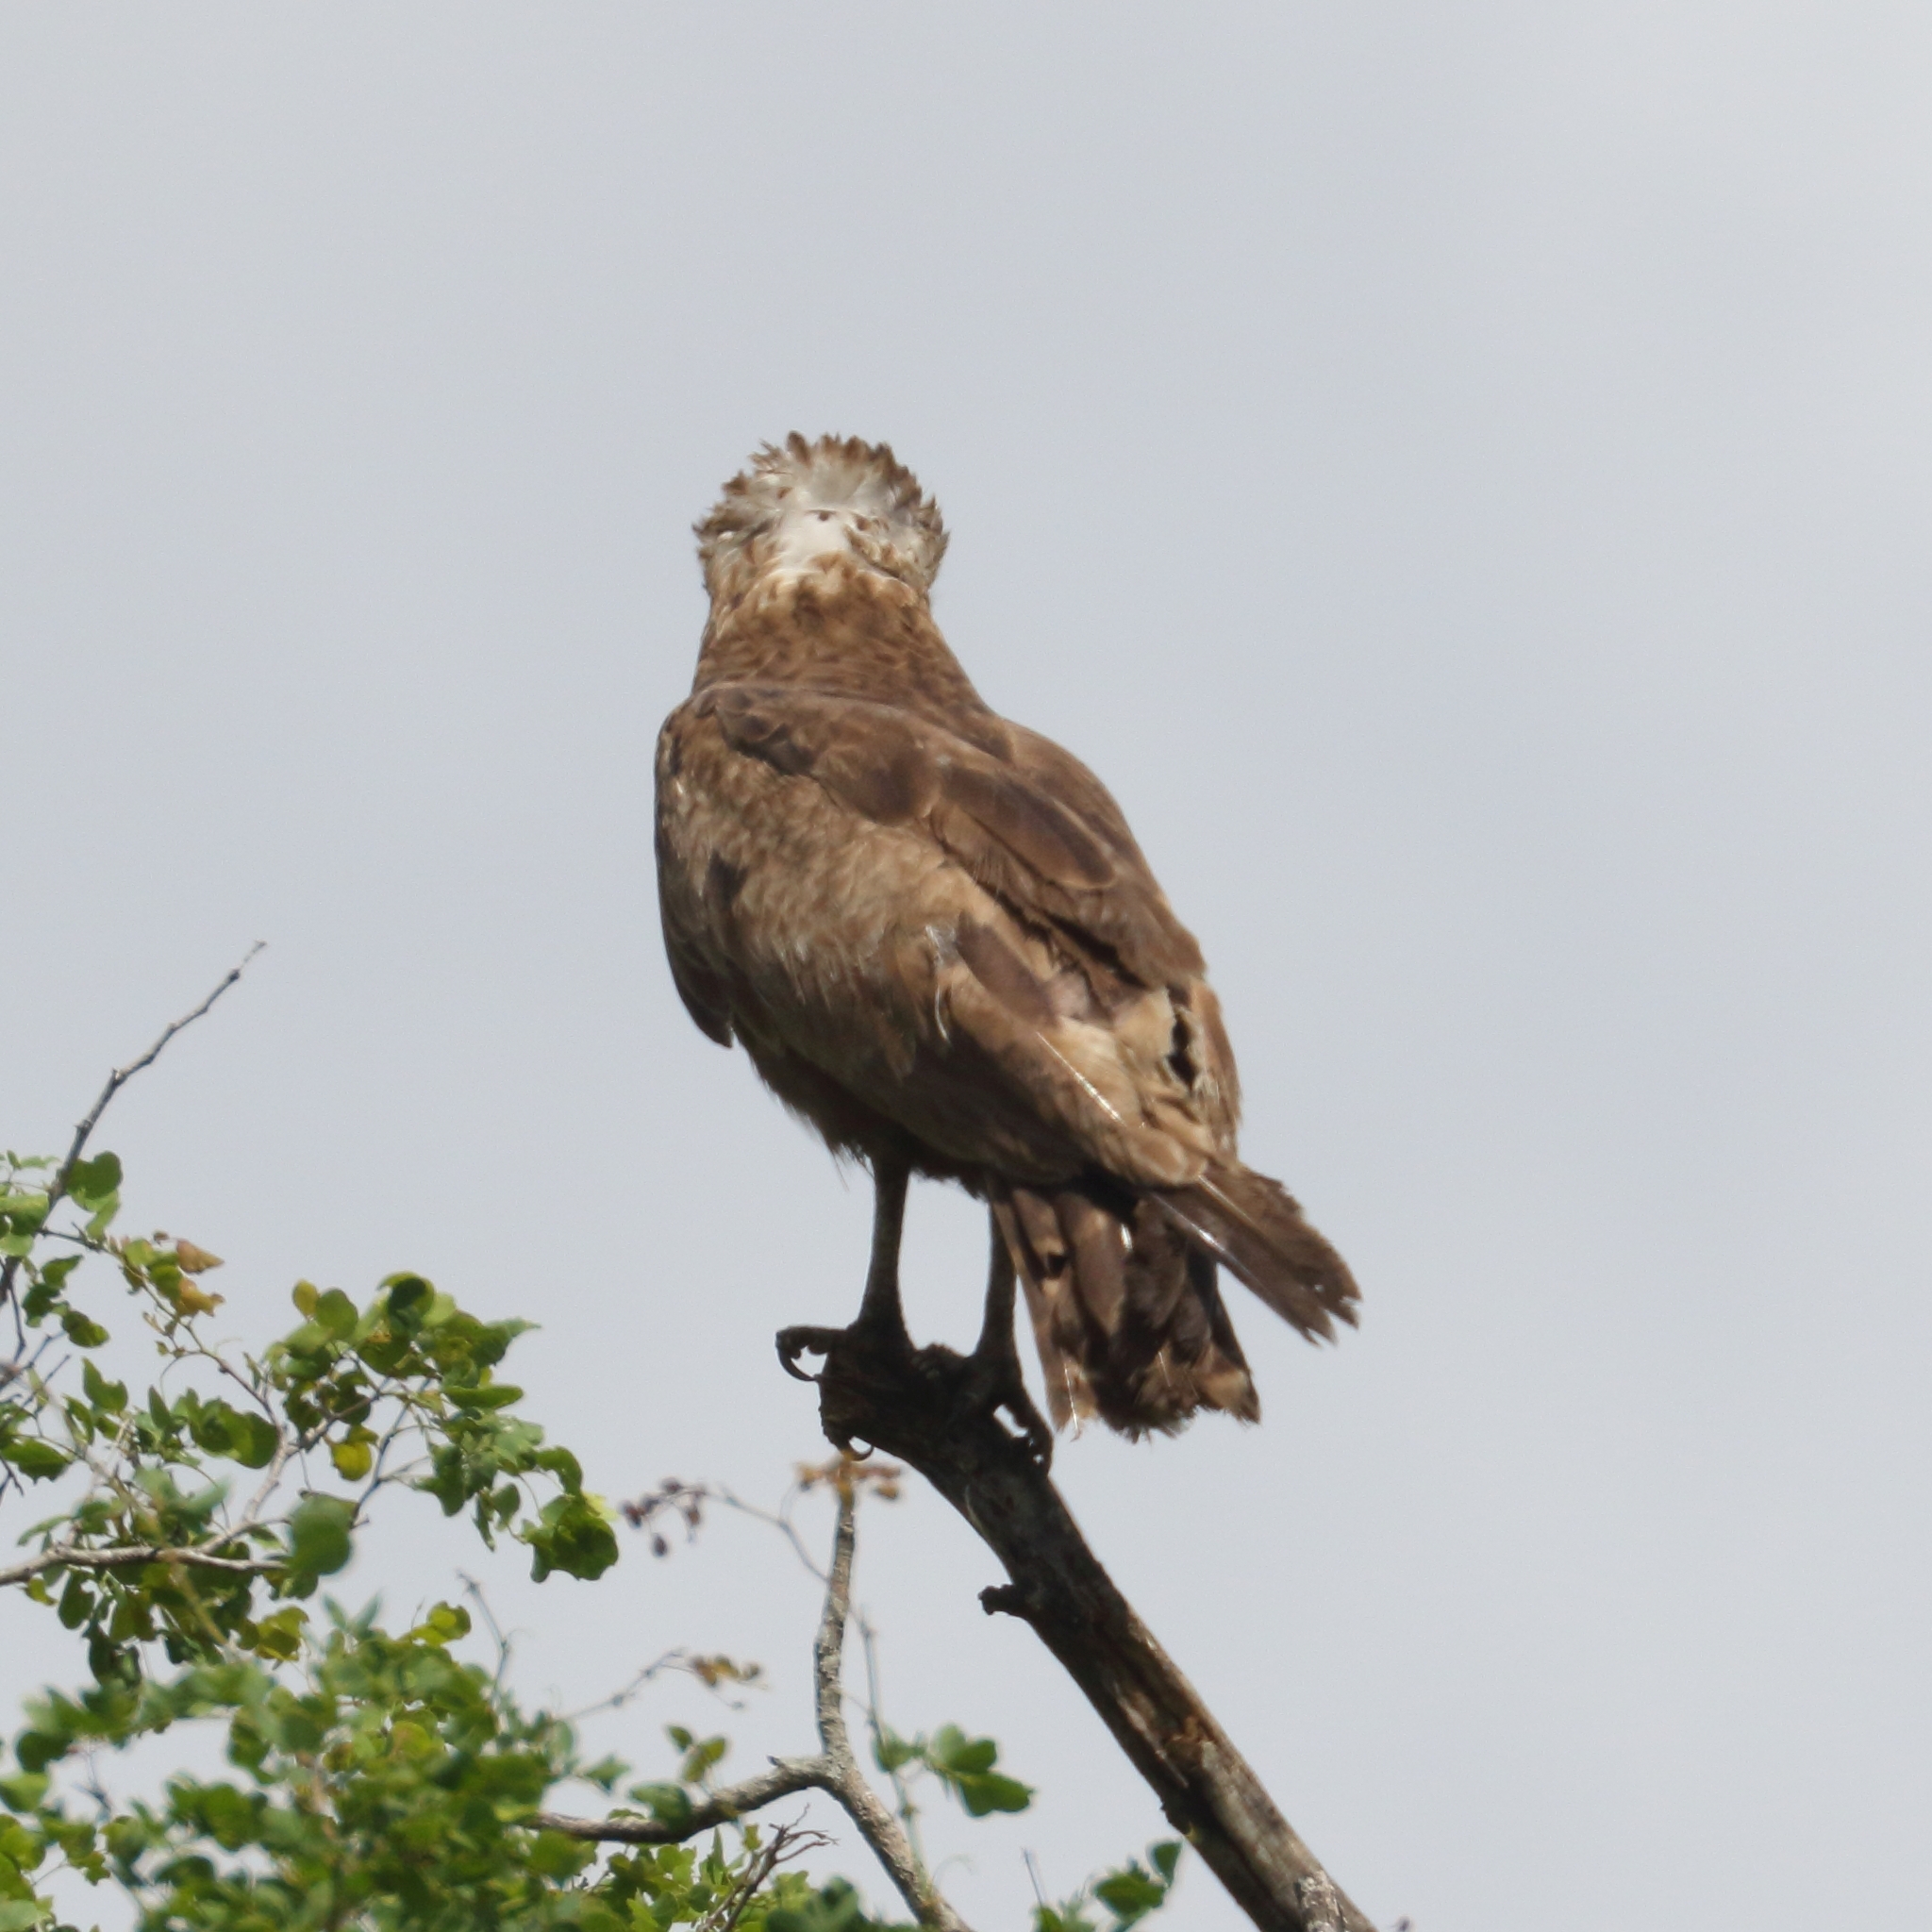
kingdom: Animalia
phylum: Chordata
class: Aves
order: Accipitriformes
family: Accipitridae
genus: Circaetus
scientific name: Circaetus cinereus
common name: Brown snake eagle
